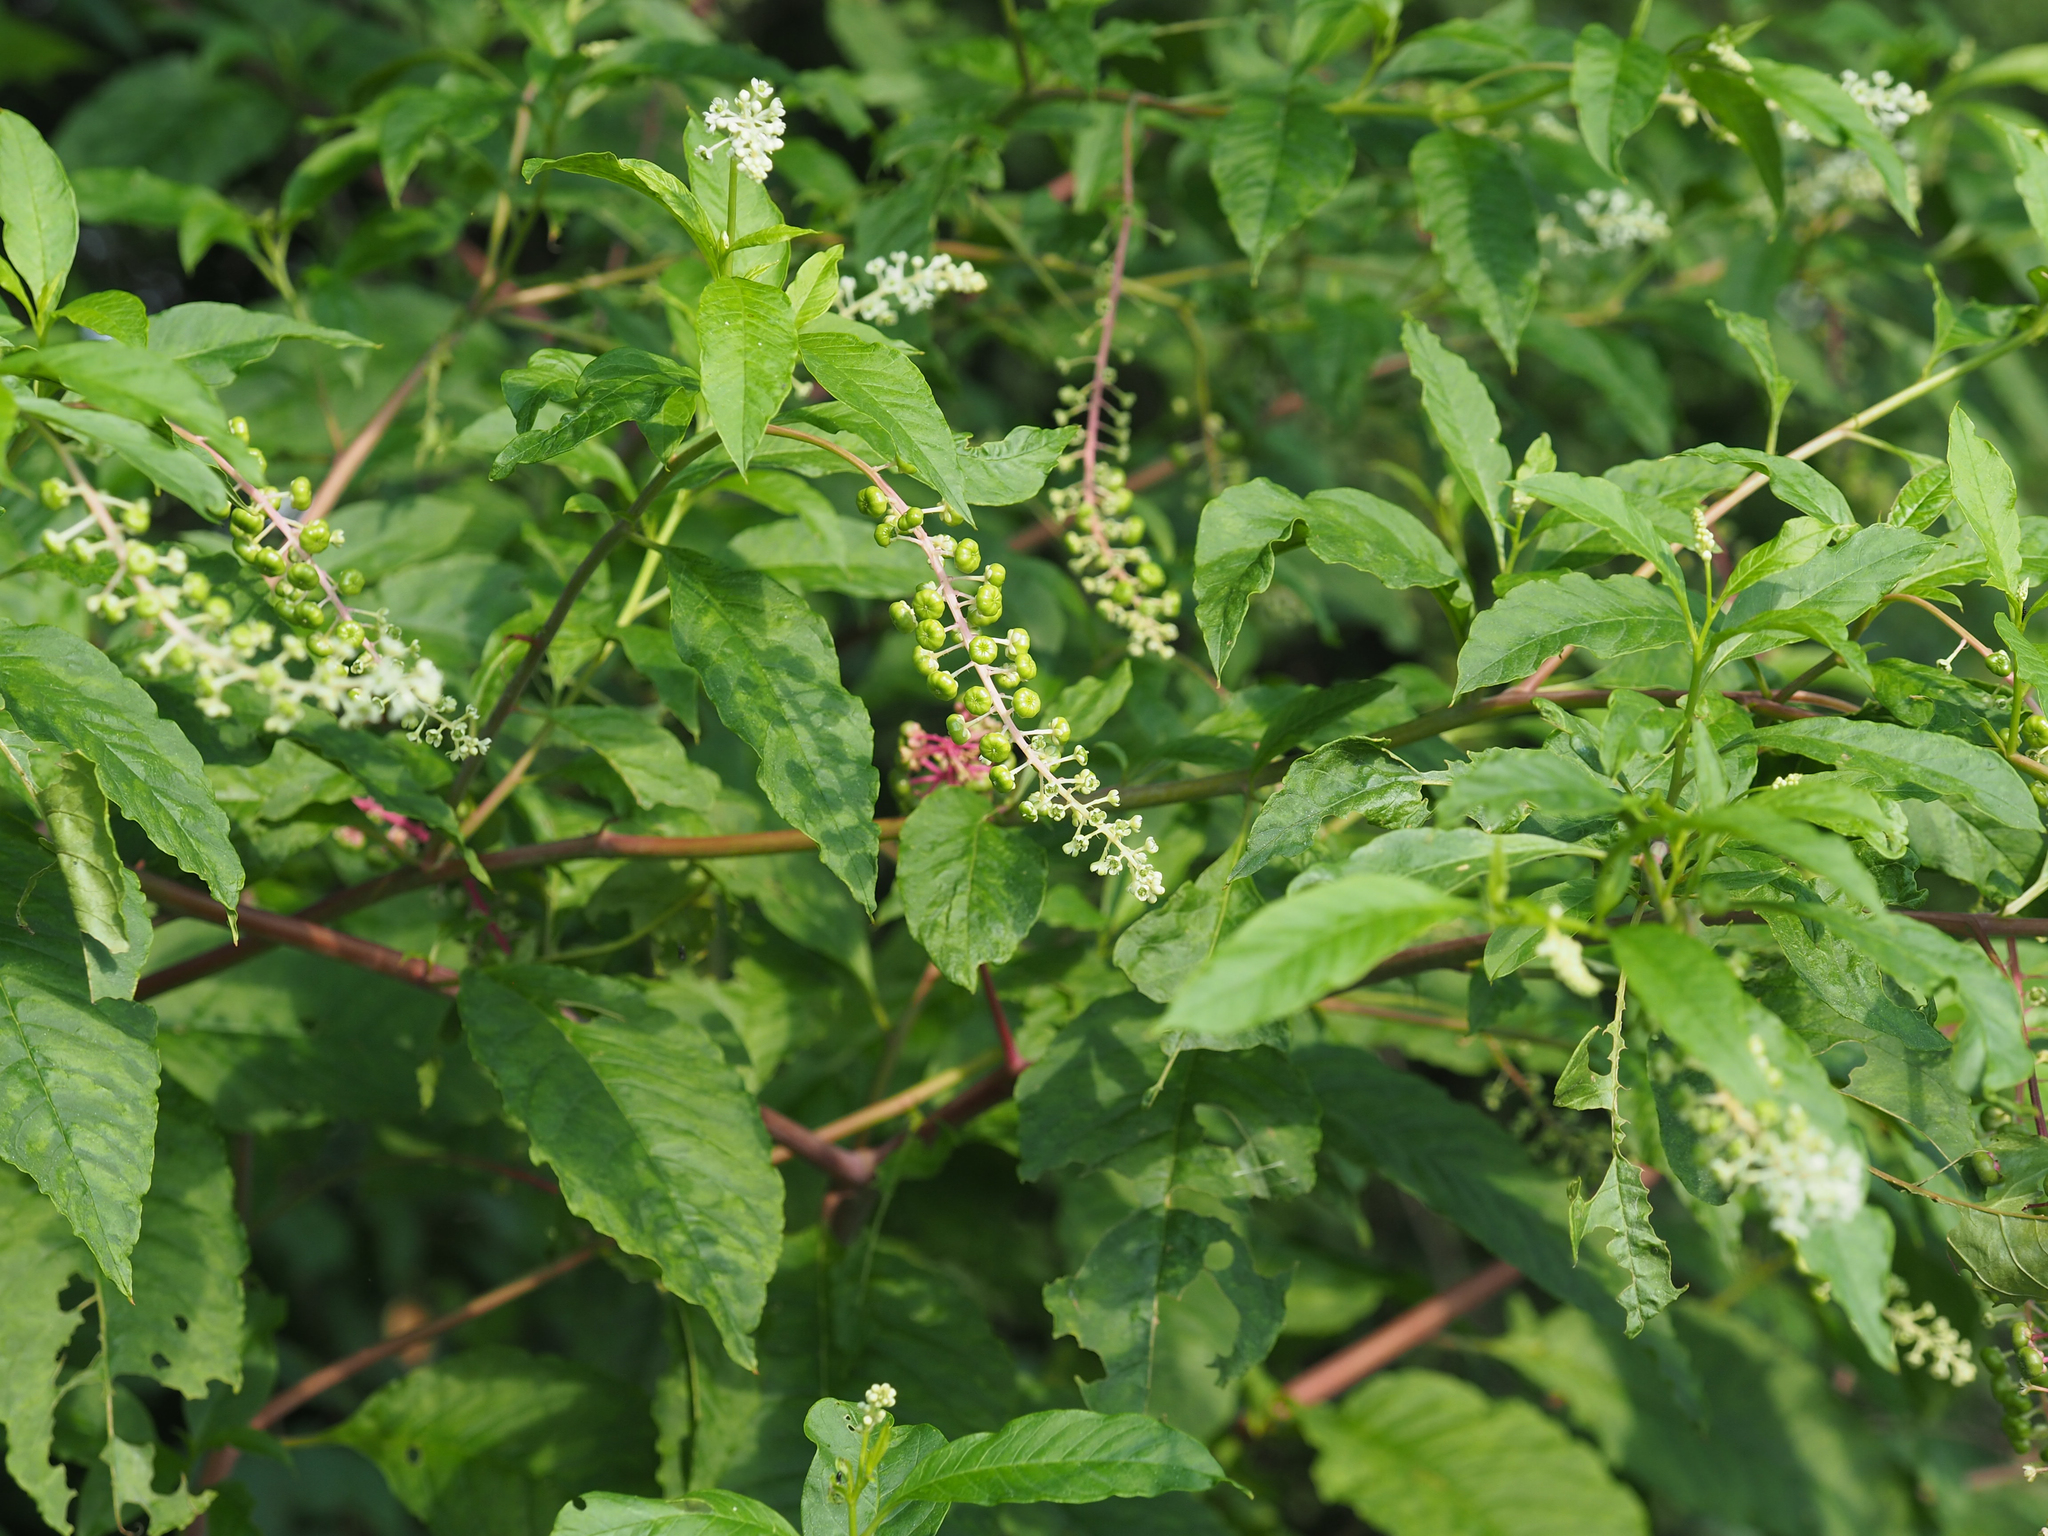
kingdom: Plantae
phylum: Tracheophyta
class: Magnoliopsida
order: Caryophyllales
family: Phytolaccaceae
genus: Phytolacca
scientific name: Phytolacca americana
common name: American pokeweed
